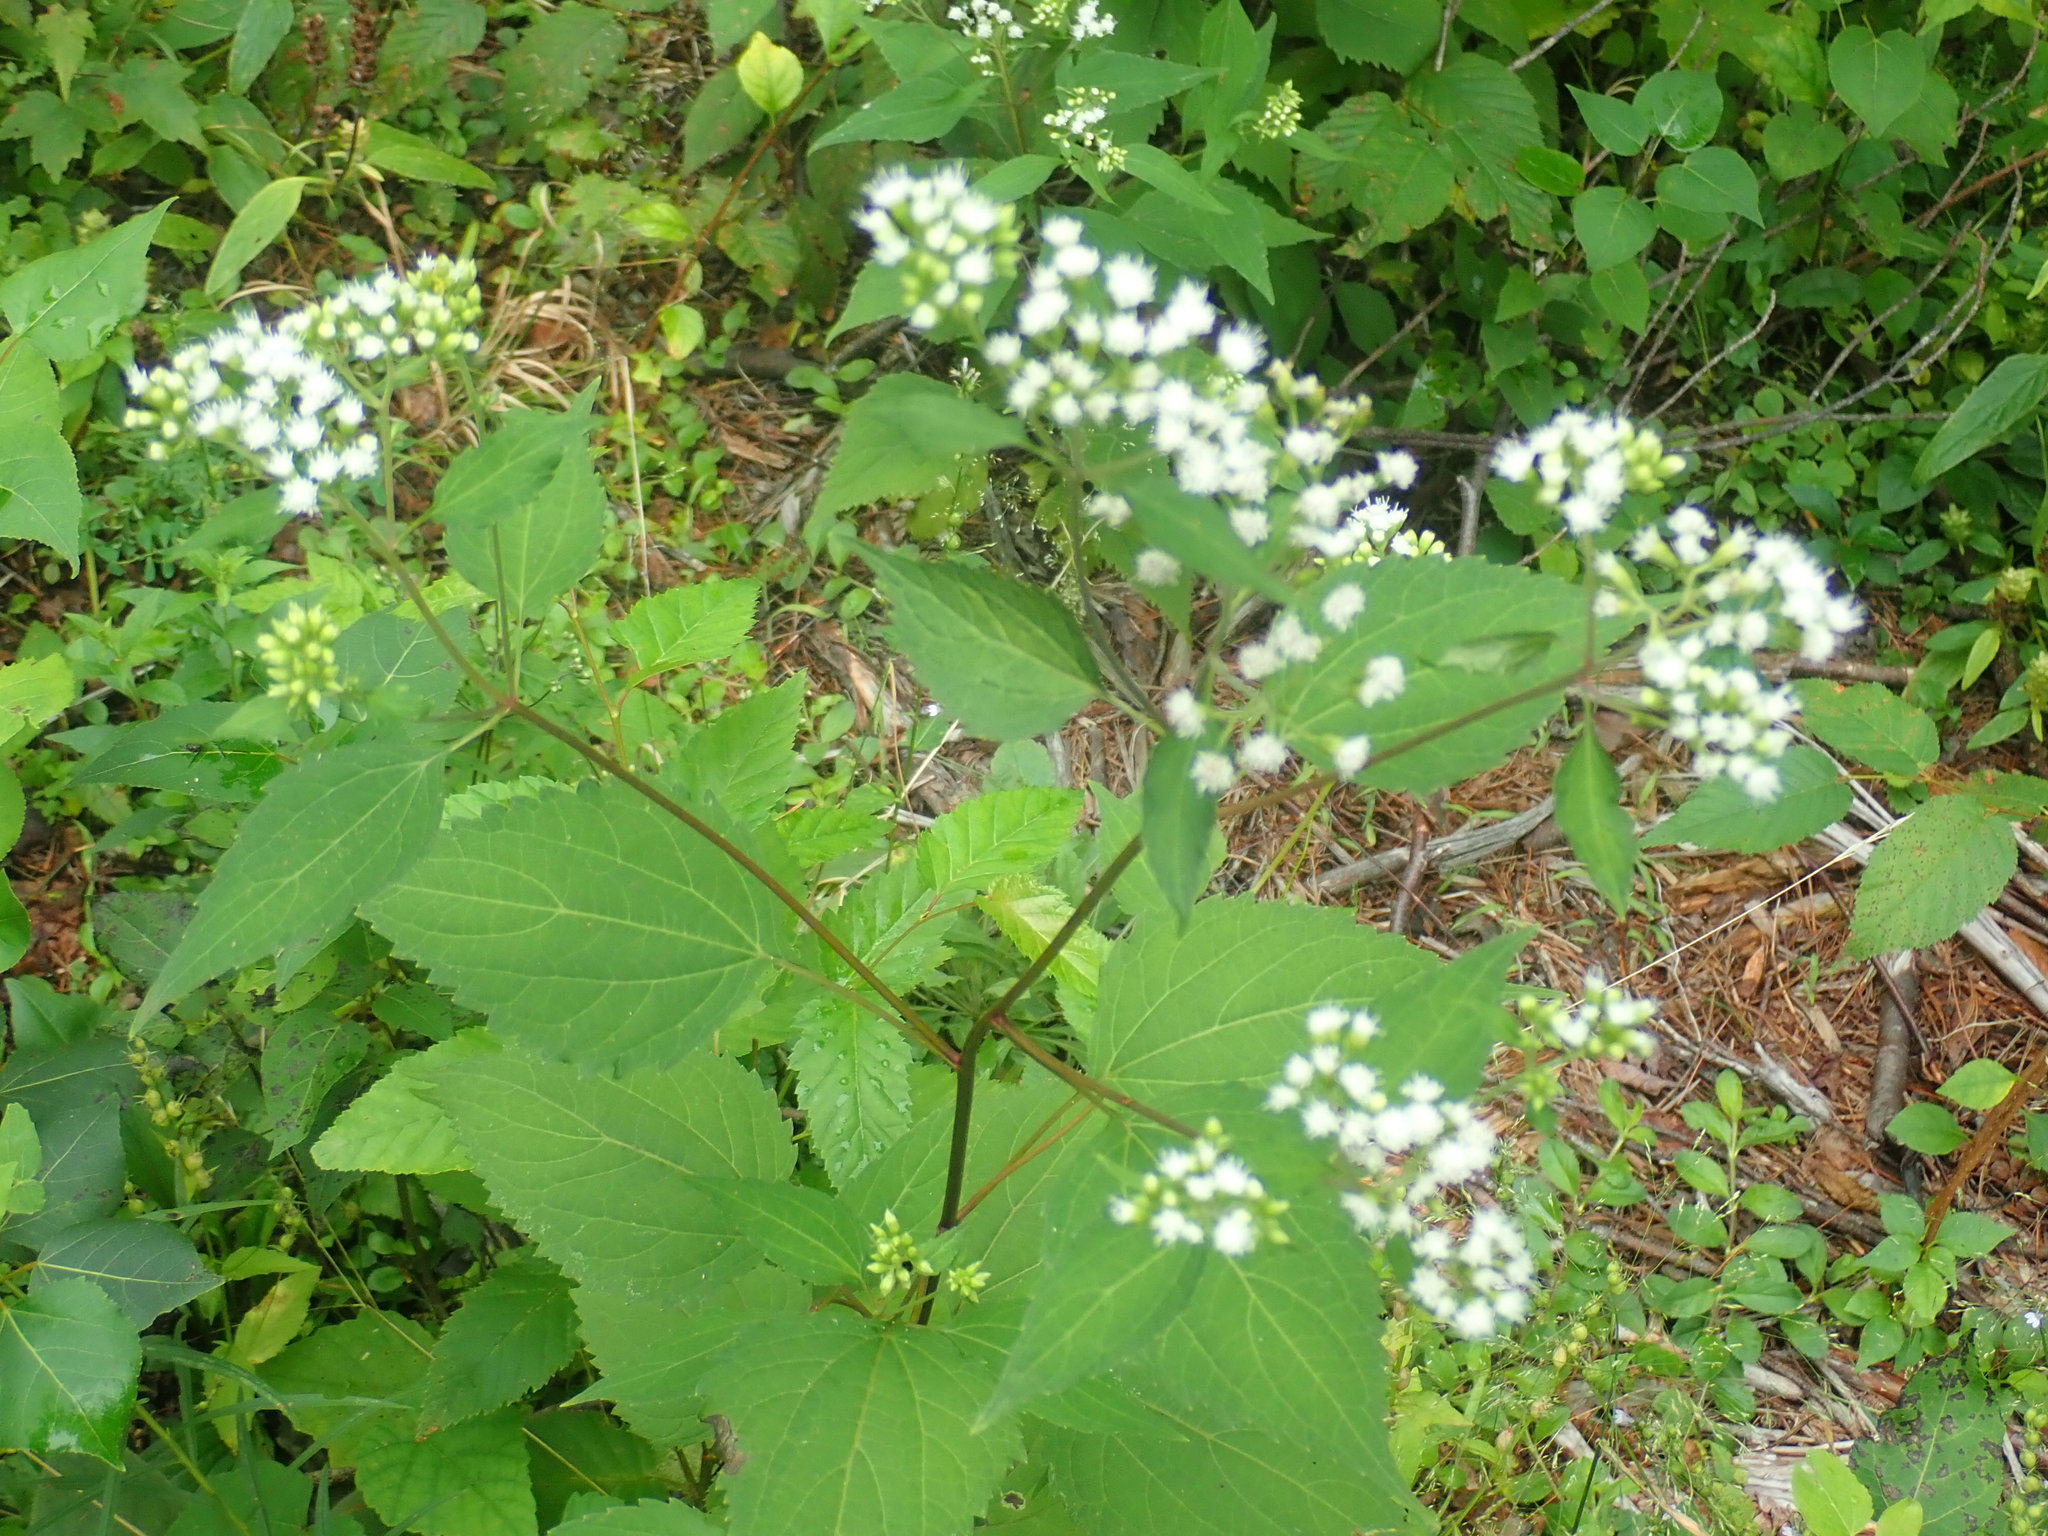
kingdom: Plantae
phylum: Tracheophyta
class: Magnoliopsida
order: Asterales
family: Asteraceae
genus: Ageratina
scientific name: Ageratina altissima
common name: White snakeroot
